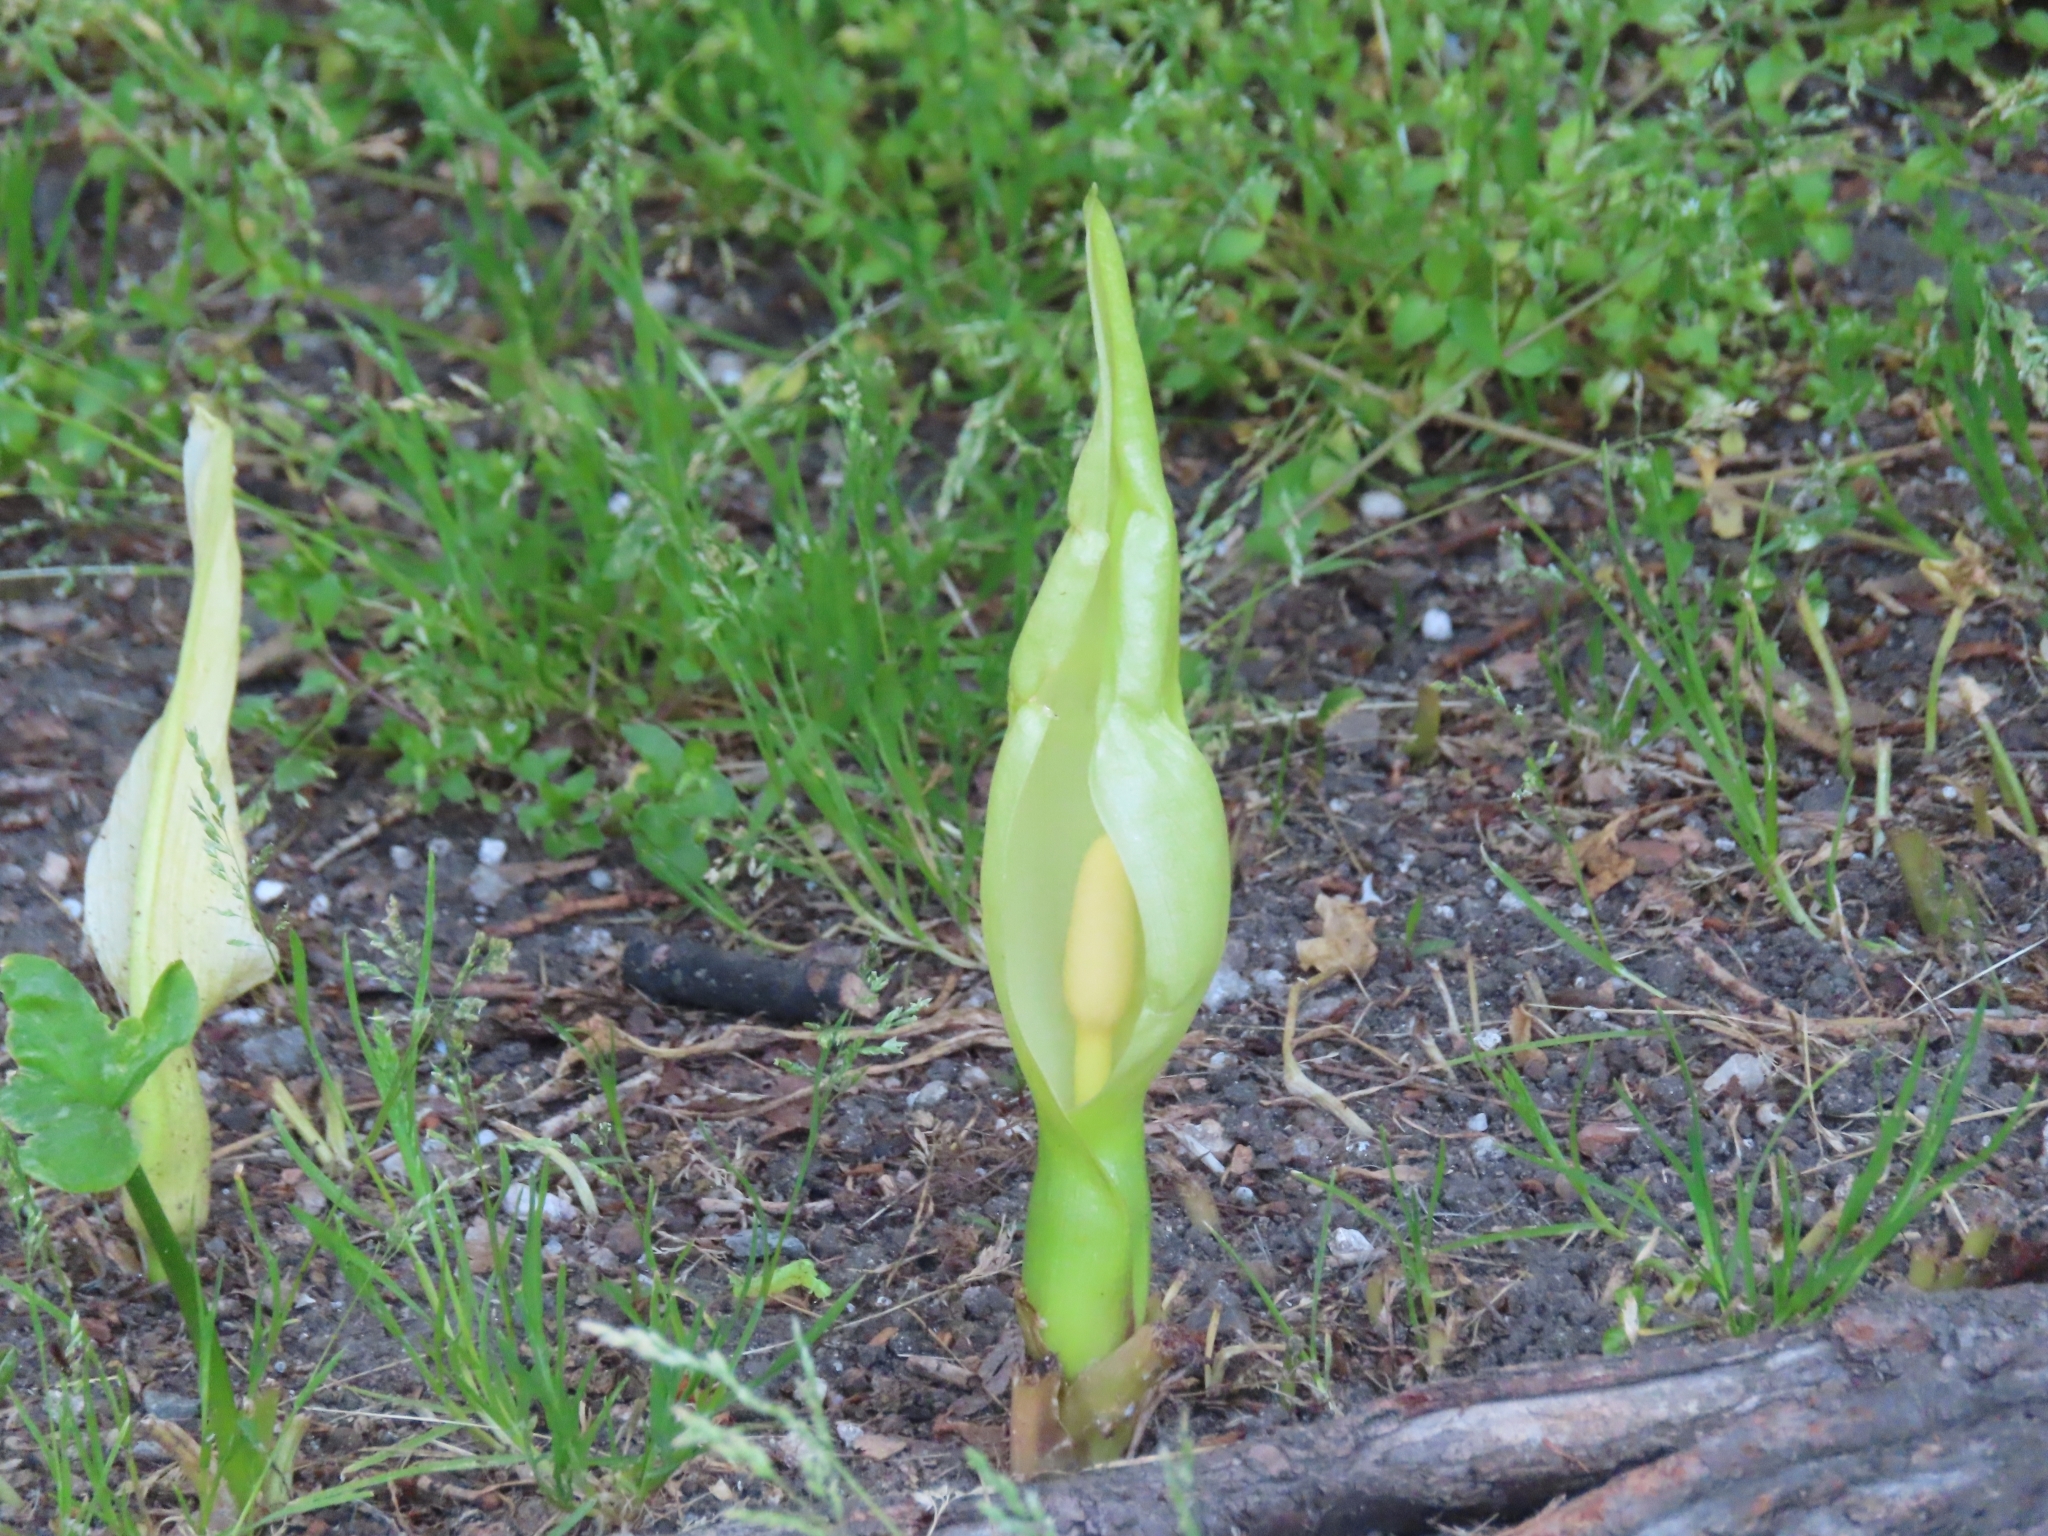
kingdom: Plantae
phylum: Tracheophyta
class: Liliopsida
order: Alismatales
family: Araceae
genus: Arum
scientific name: Arum italicum
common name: Italian lords-and-ladies
